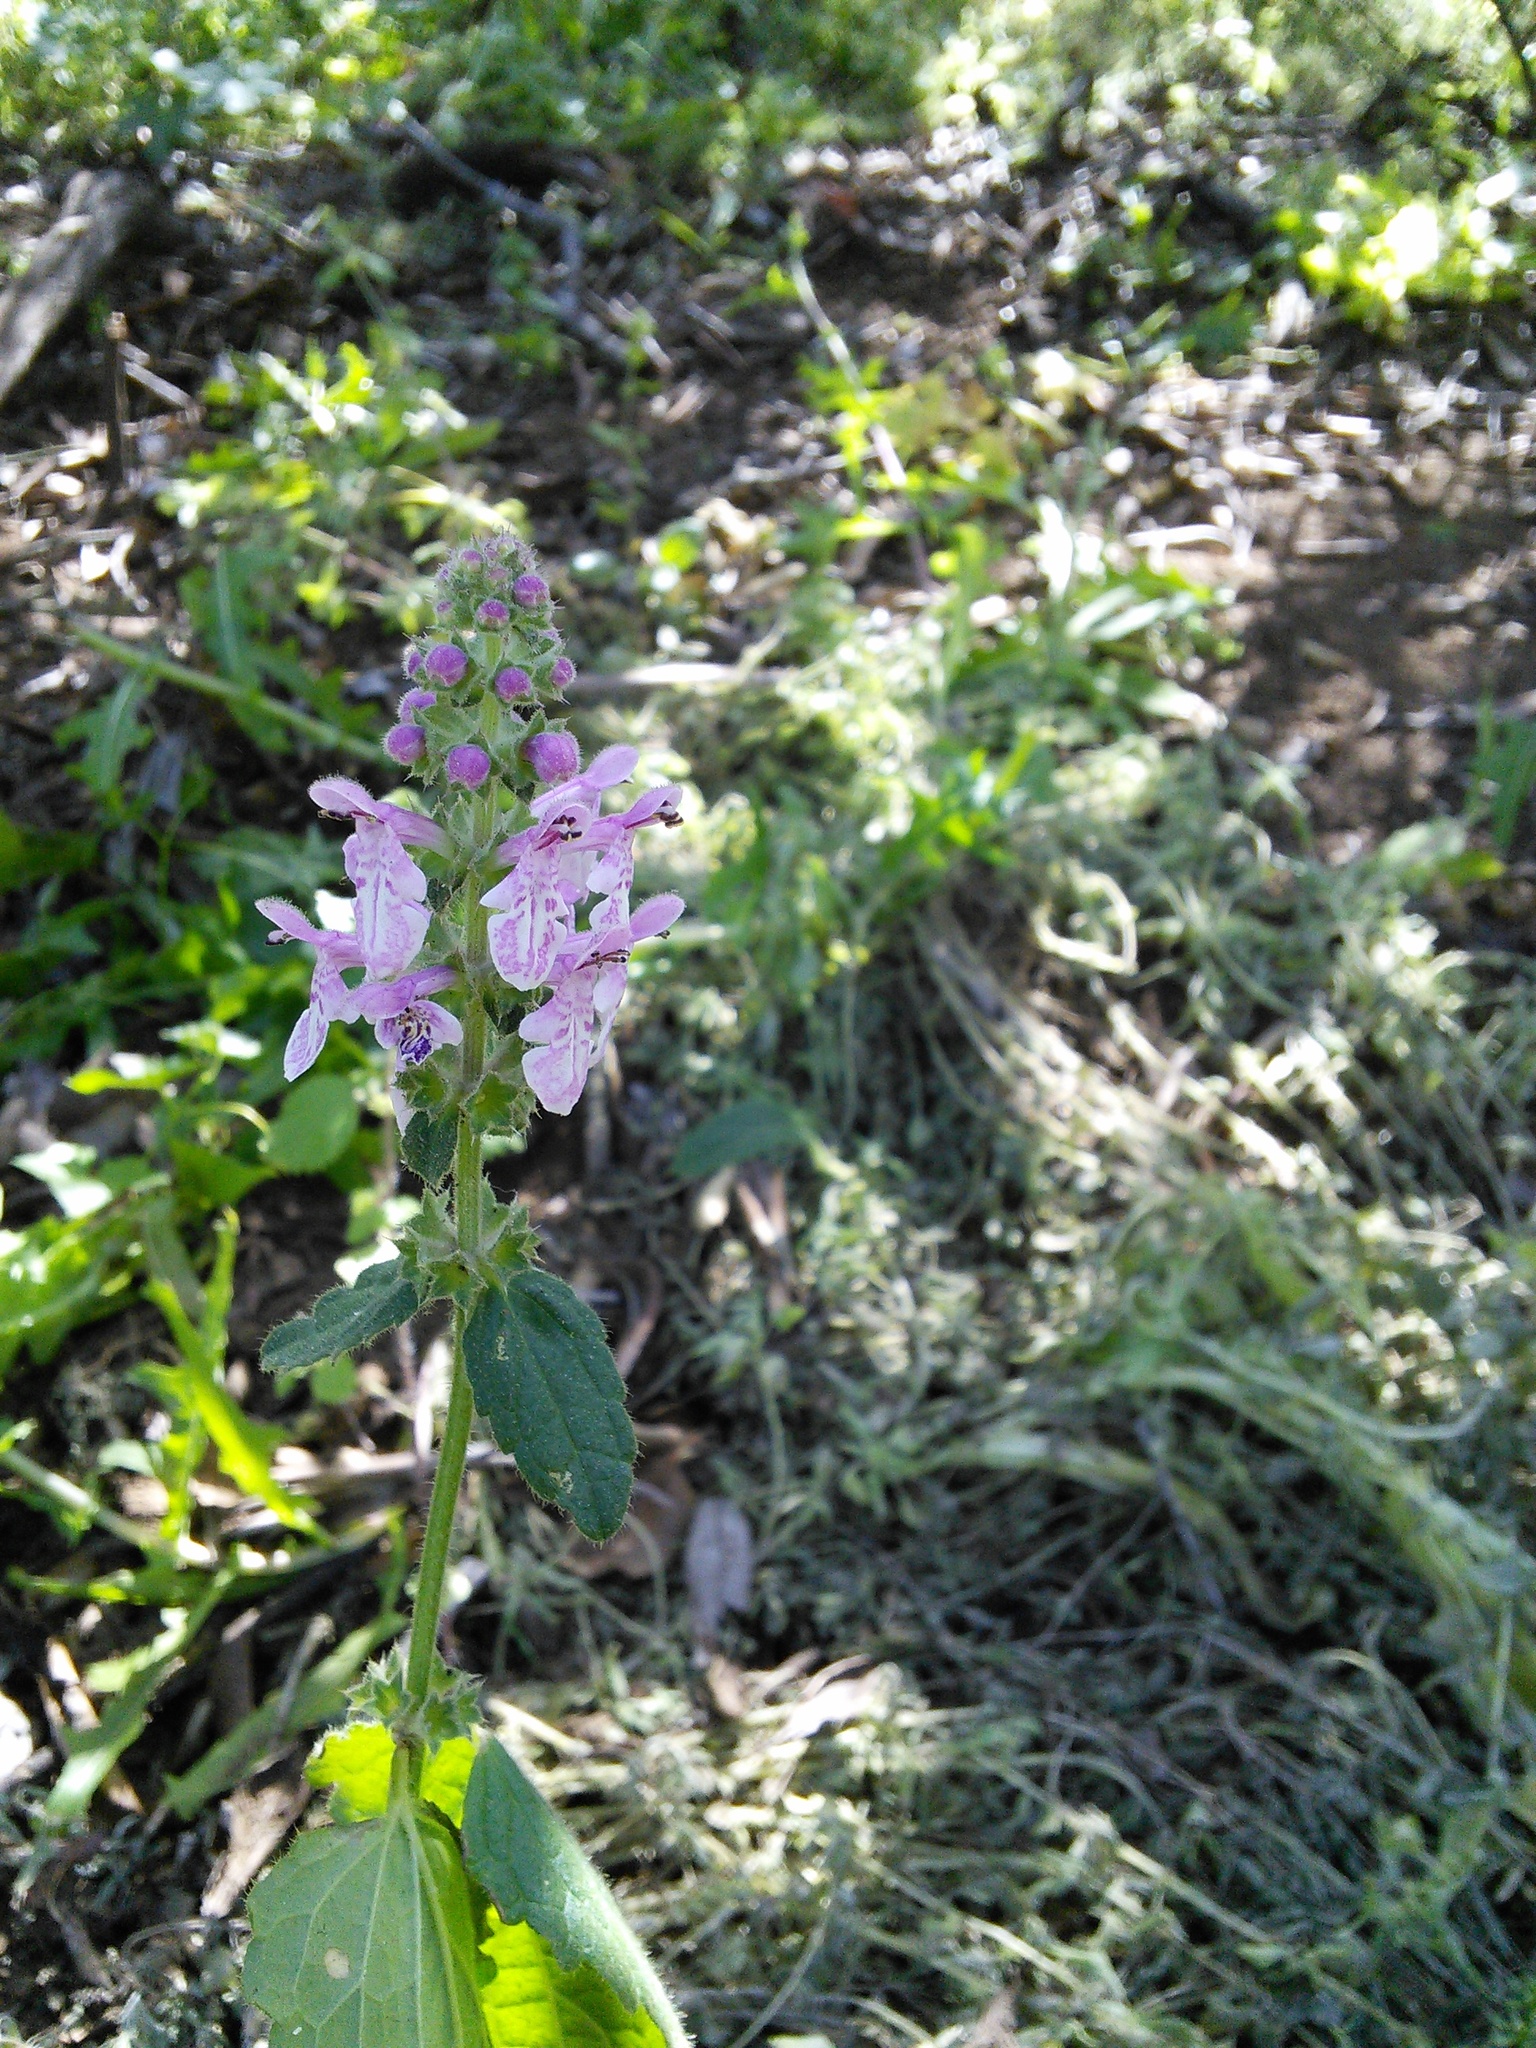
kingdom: Plantae
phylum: Tracheophyta
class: Magnoliopsida
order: Lamiales
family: Lamiaceae
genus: Stachys
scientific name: Stachys bullata
